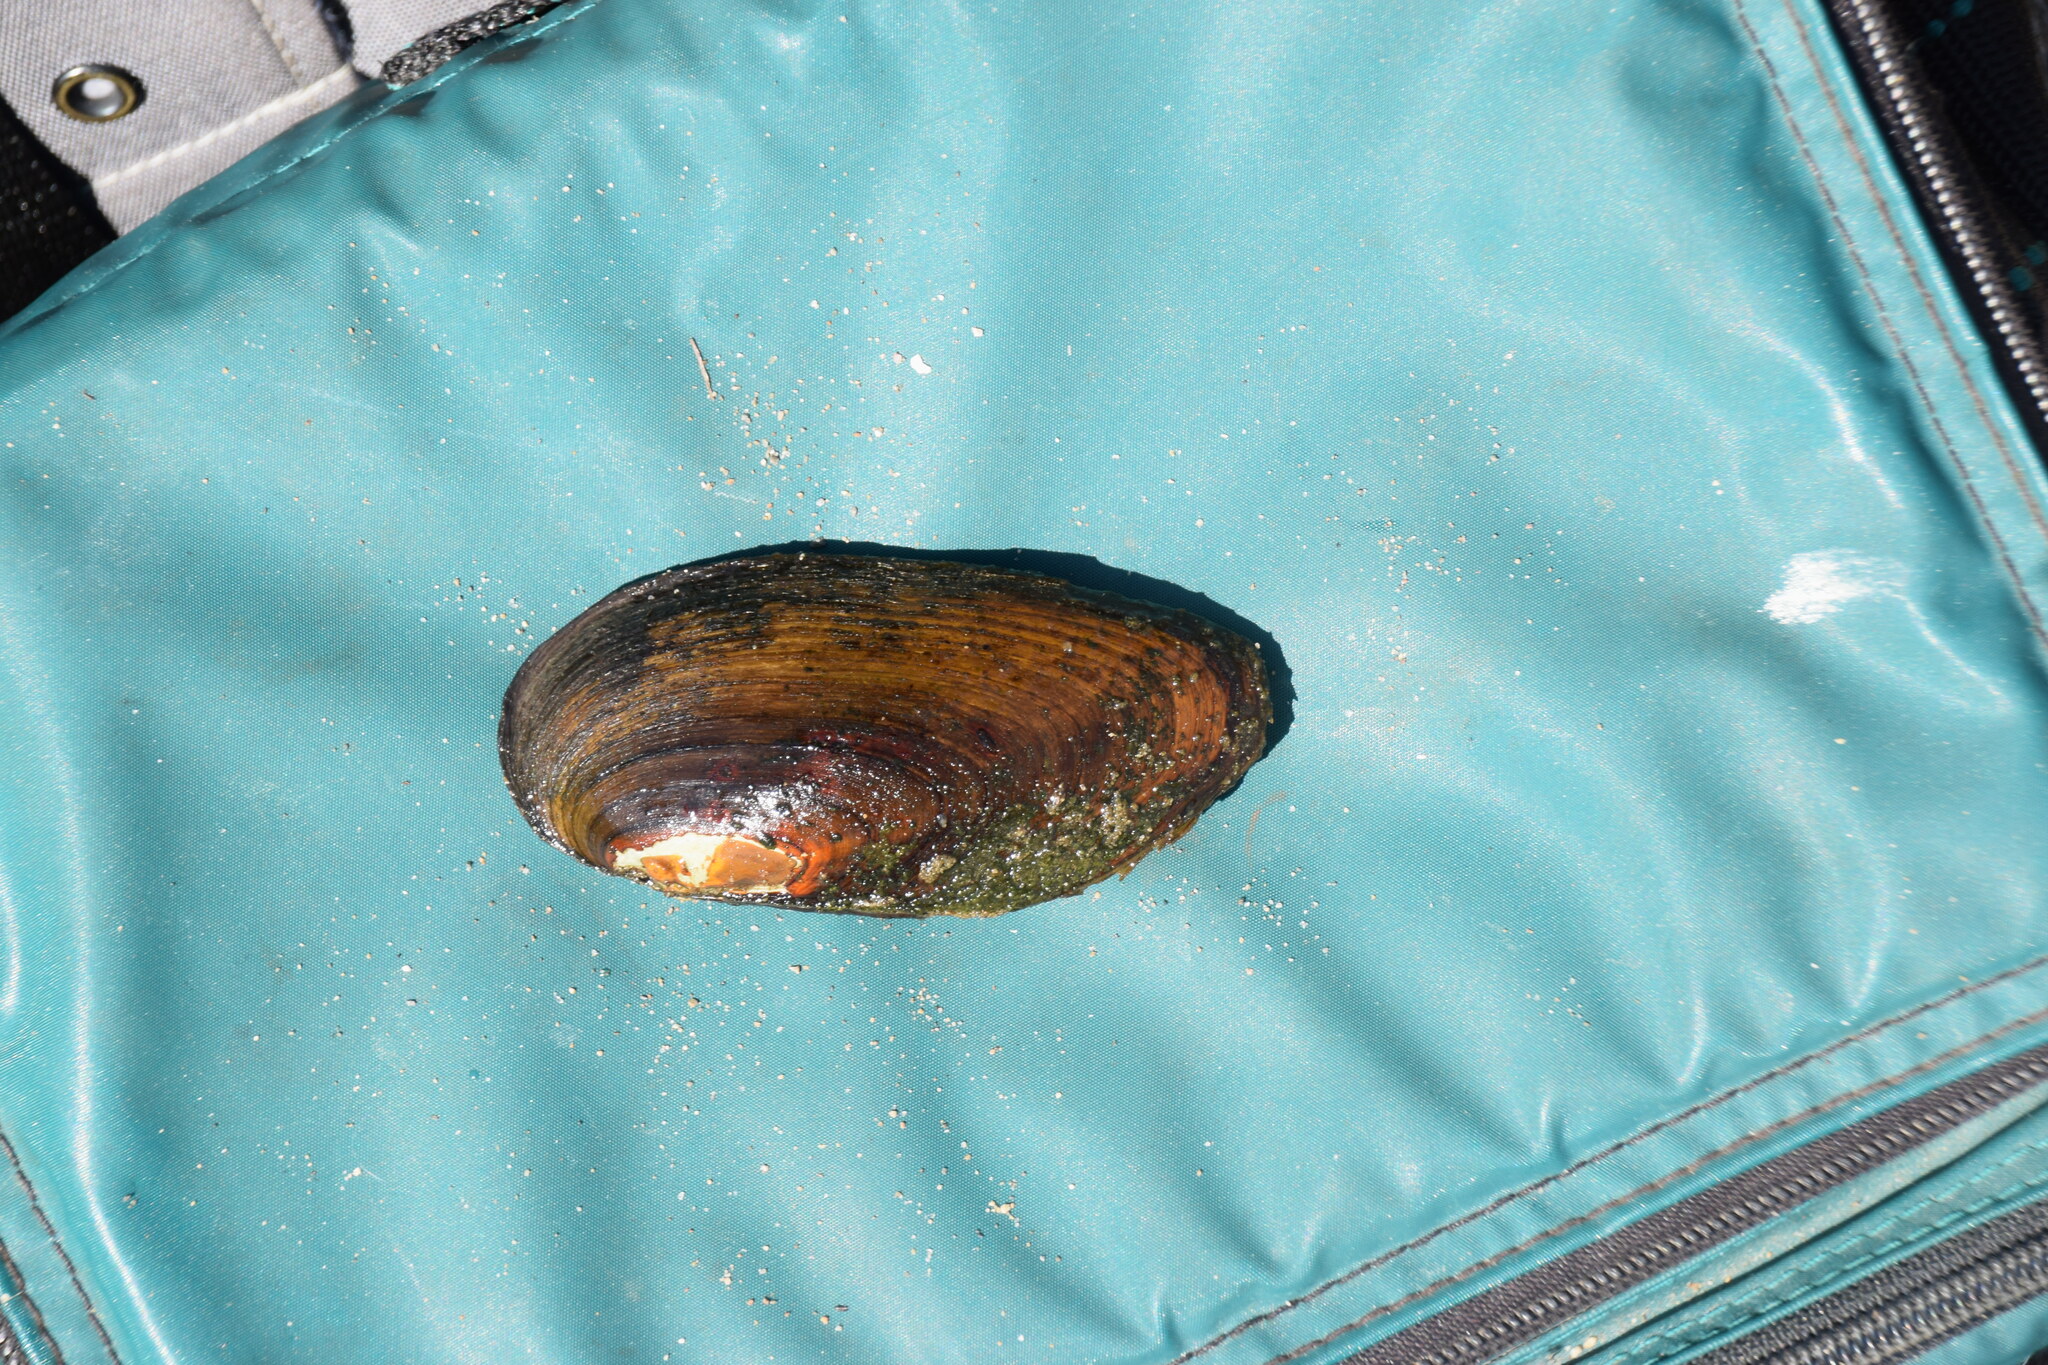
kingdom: Animalia
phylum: Mollusca
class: Bivalvia
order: Unionida
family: Unionidae
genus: Elliptio
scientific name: Elliptio complanata
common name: Eastern elliptio
